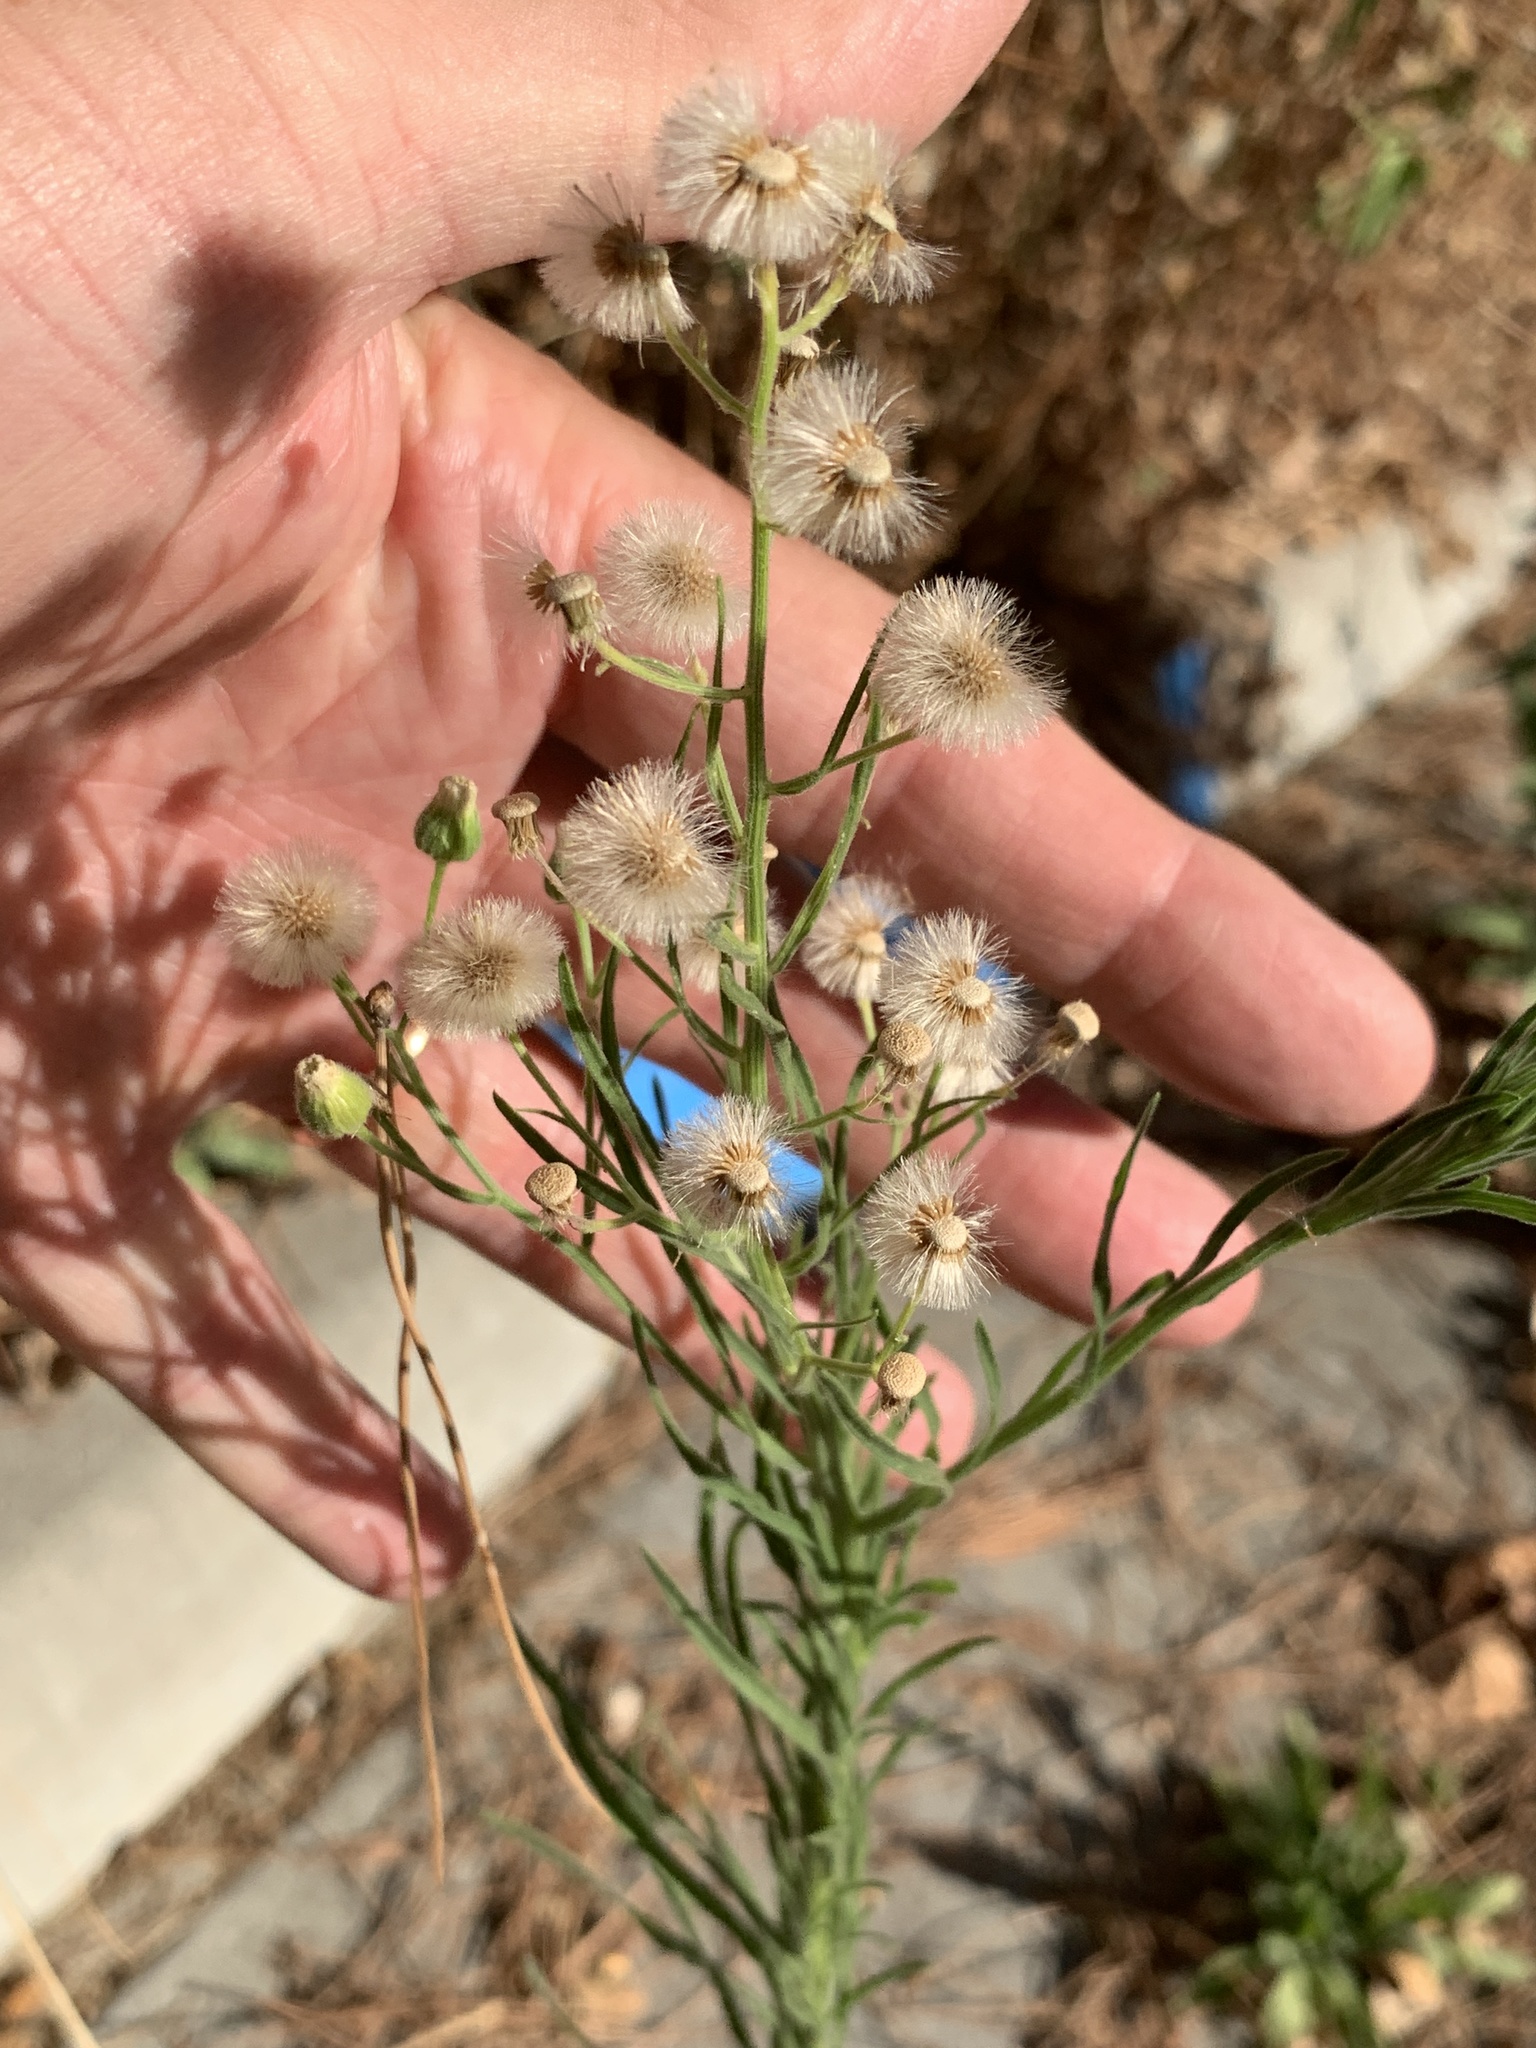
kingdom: Plantae
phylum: Tracheophyta
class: Magnoliopsida
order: Asterales
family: Asteraceae
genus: Erigeron
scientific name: Erigeron bonariensis
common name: Argentine fleabane
